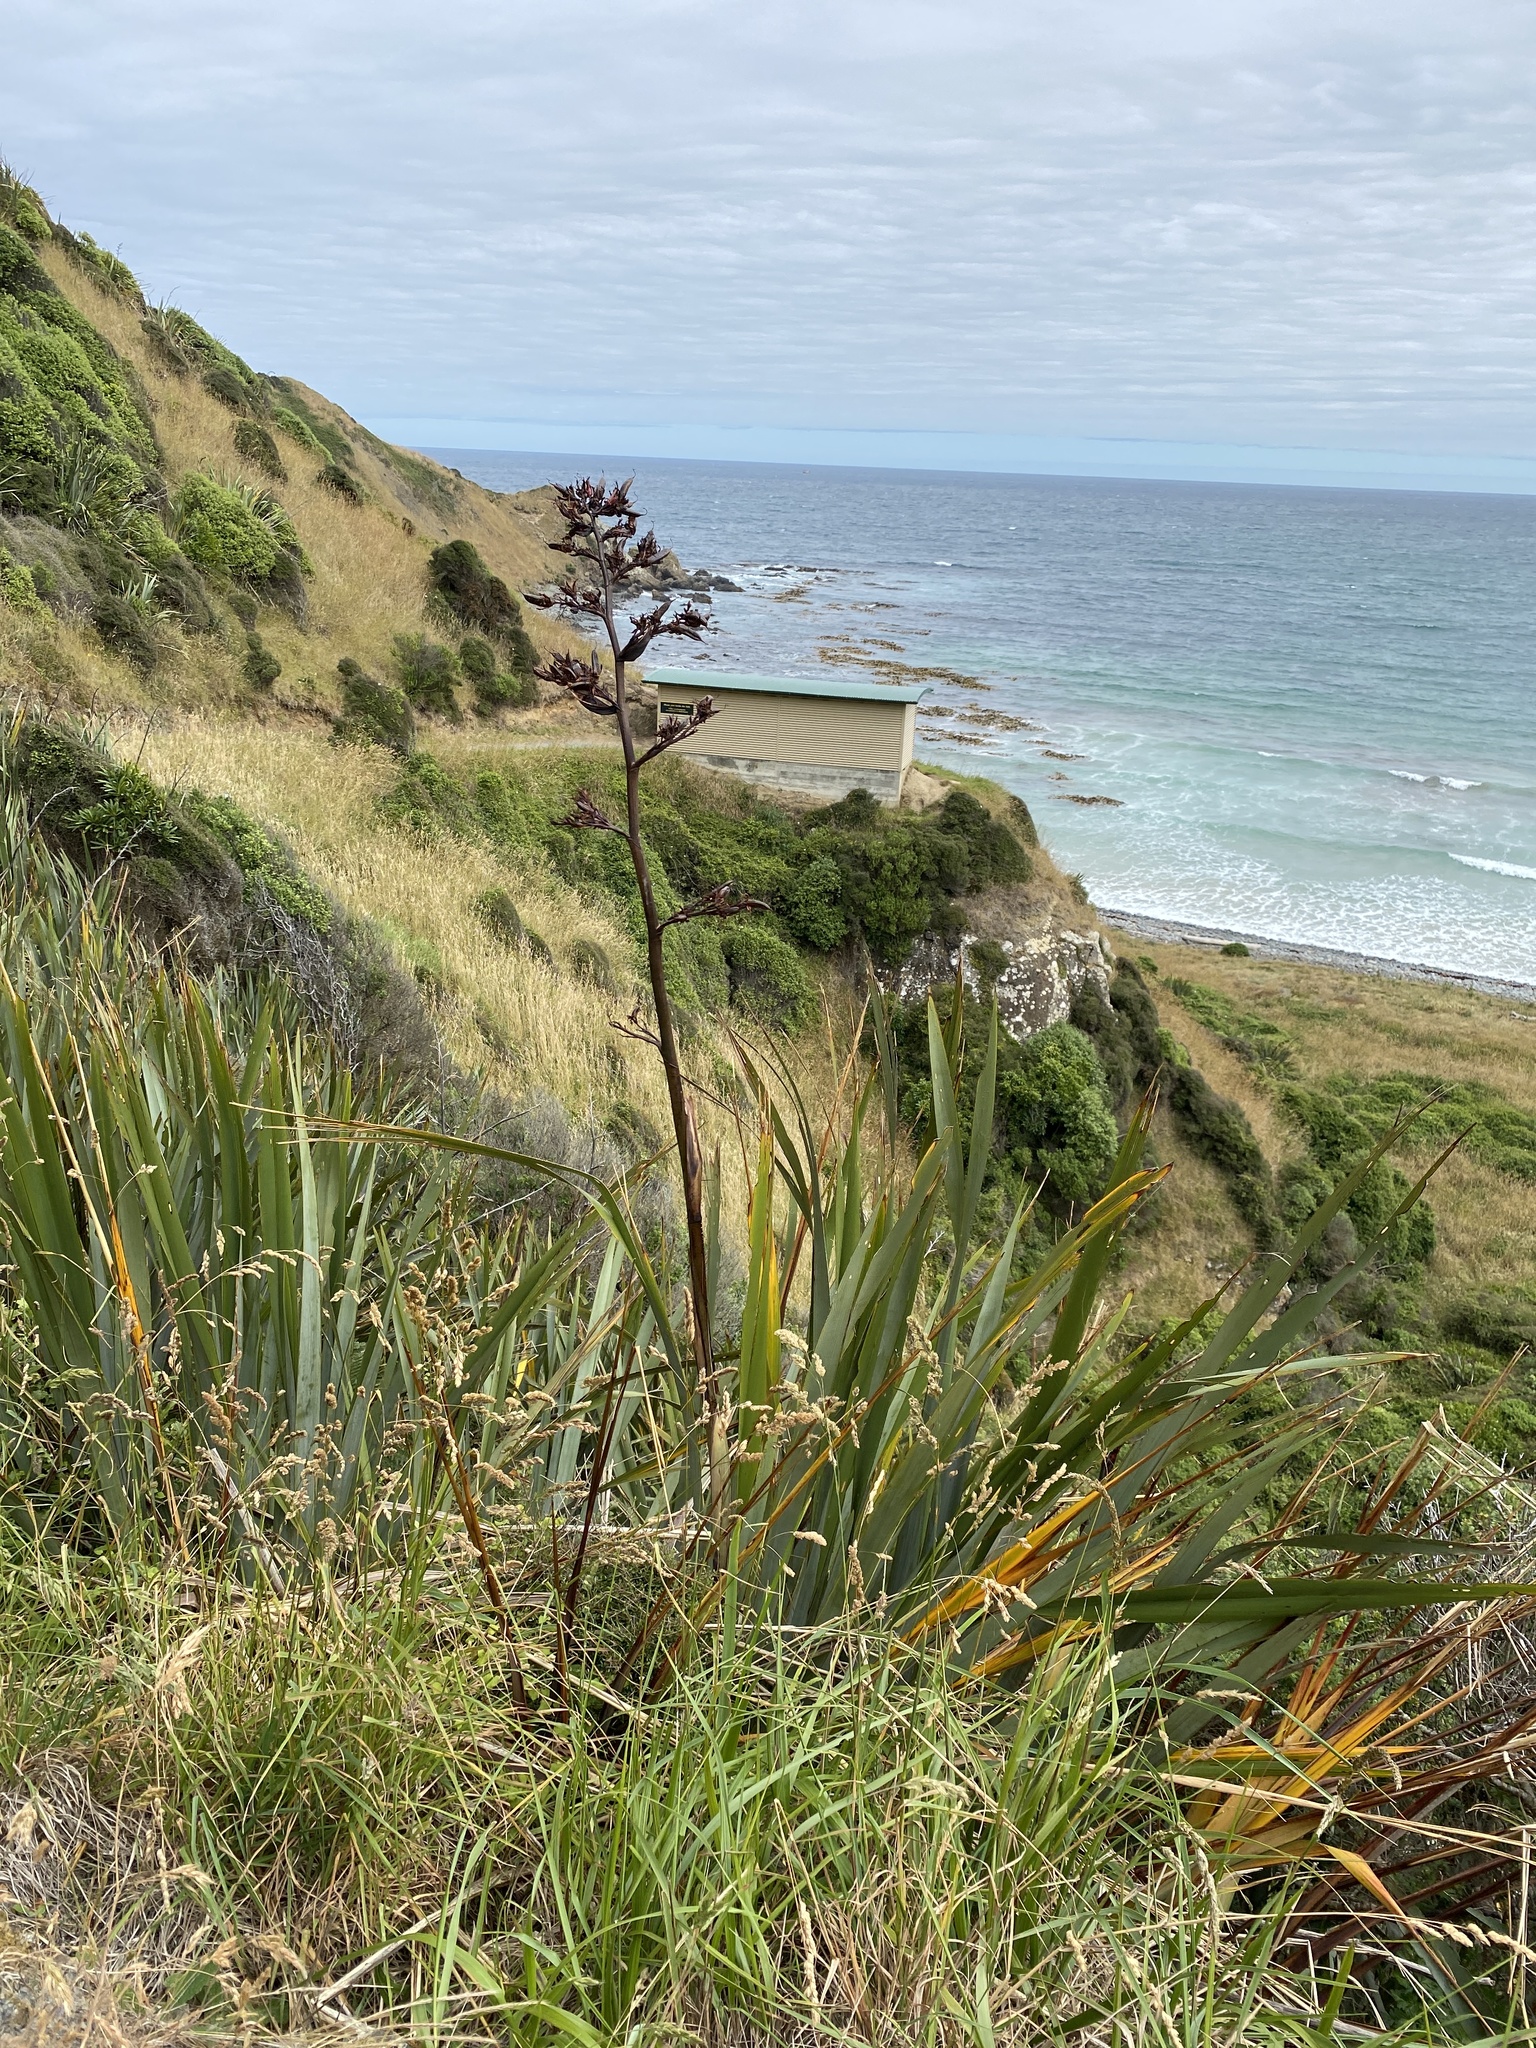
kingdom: Plantae
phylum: Tracheophyta
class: Liliopsida
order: Asparagales
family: Asphodelaceae
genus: Phormium
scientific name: Phormium tenax
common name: New zealand flax
